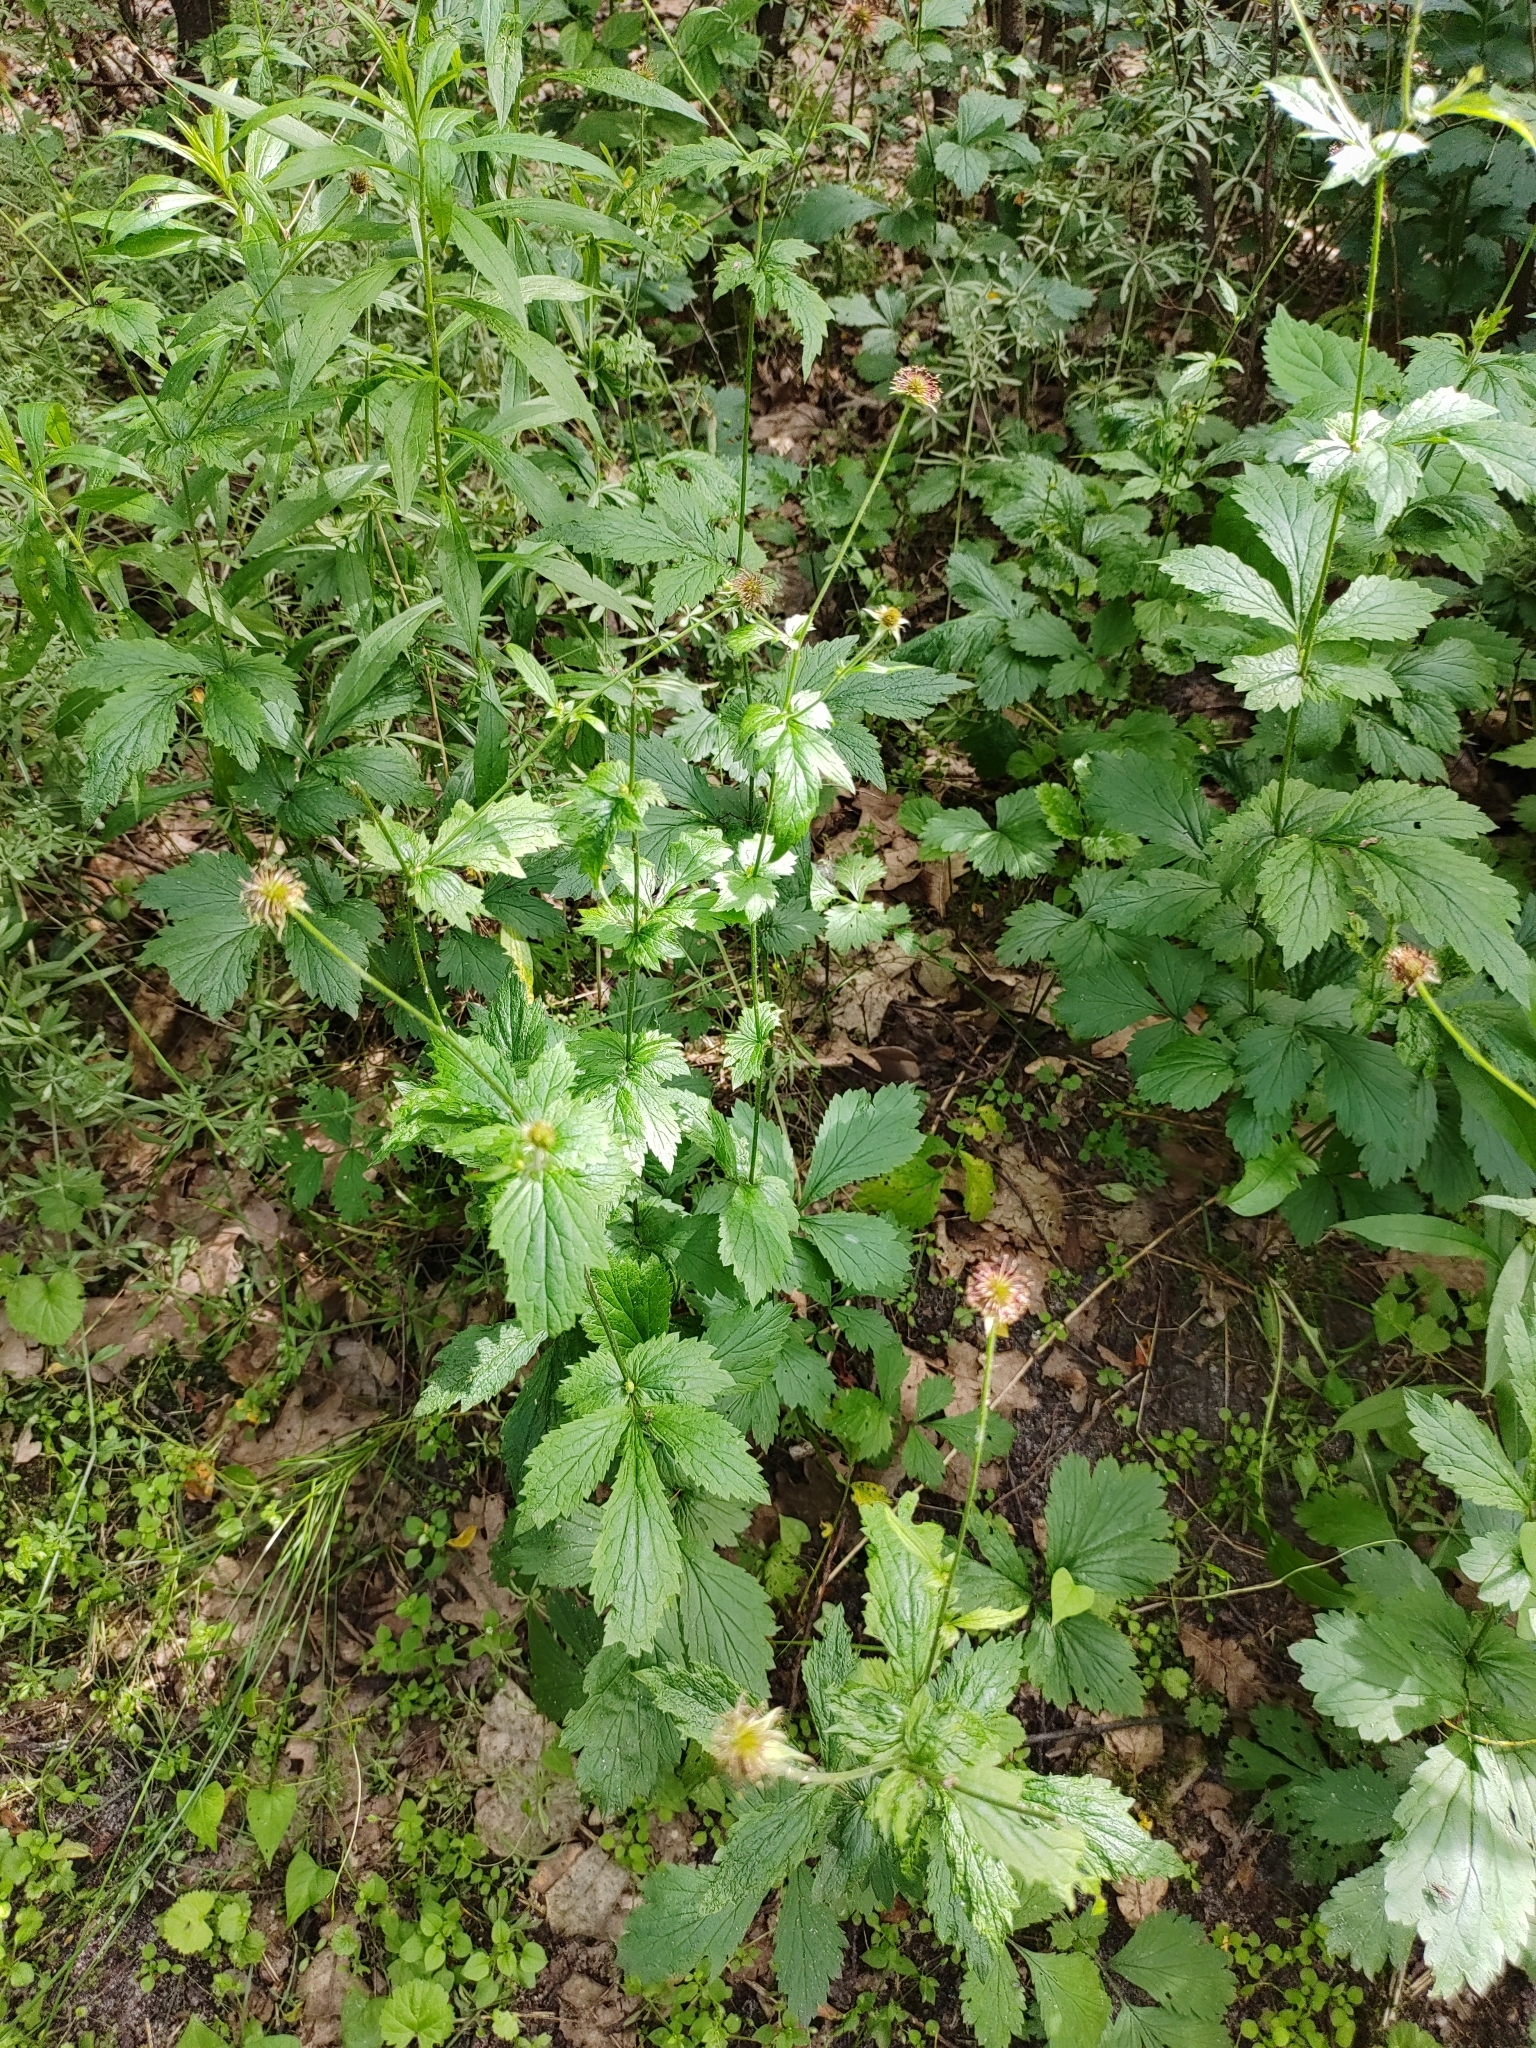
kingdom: Plantae
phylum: Tracheophyta
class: Magnoliopsida
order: Rosales
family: Rosaceae
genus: Geum
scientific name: Geum urbanum
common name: Wood avens
